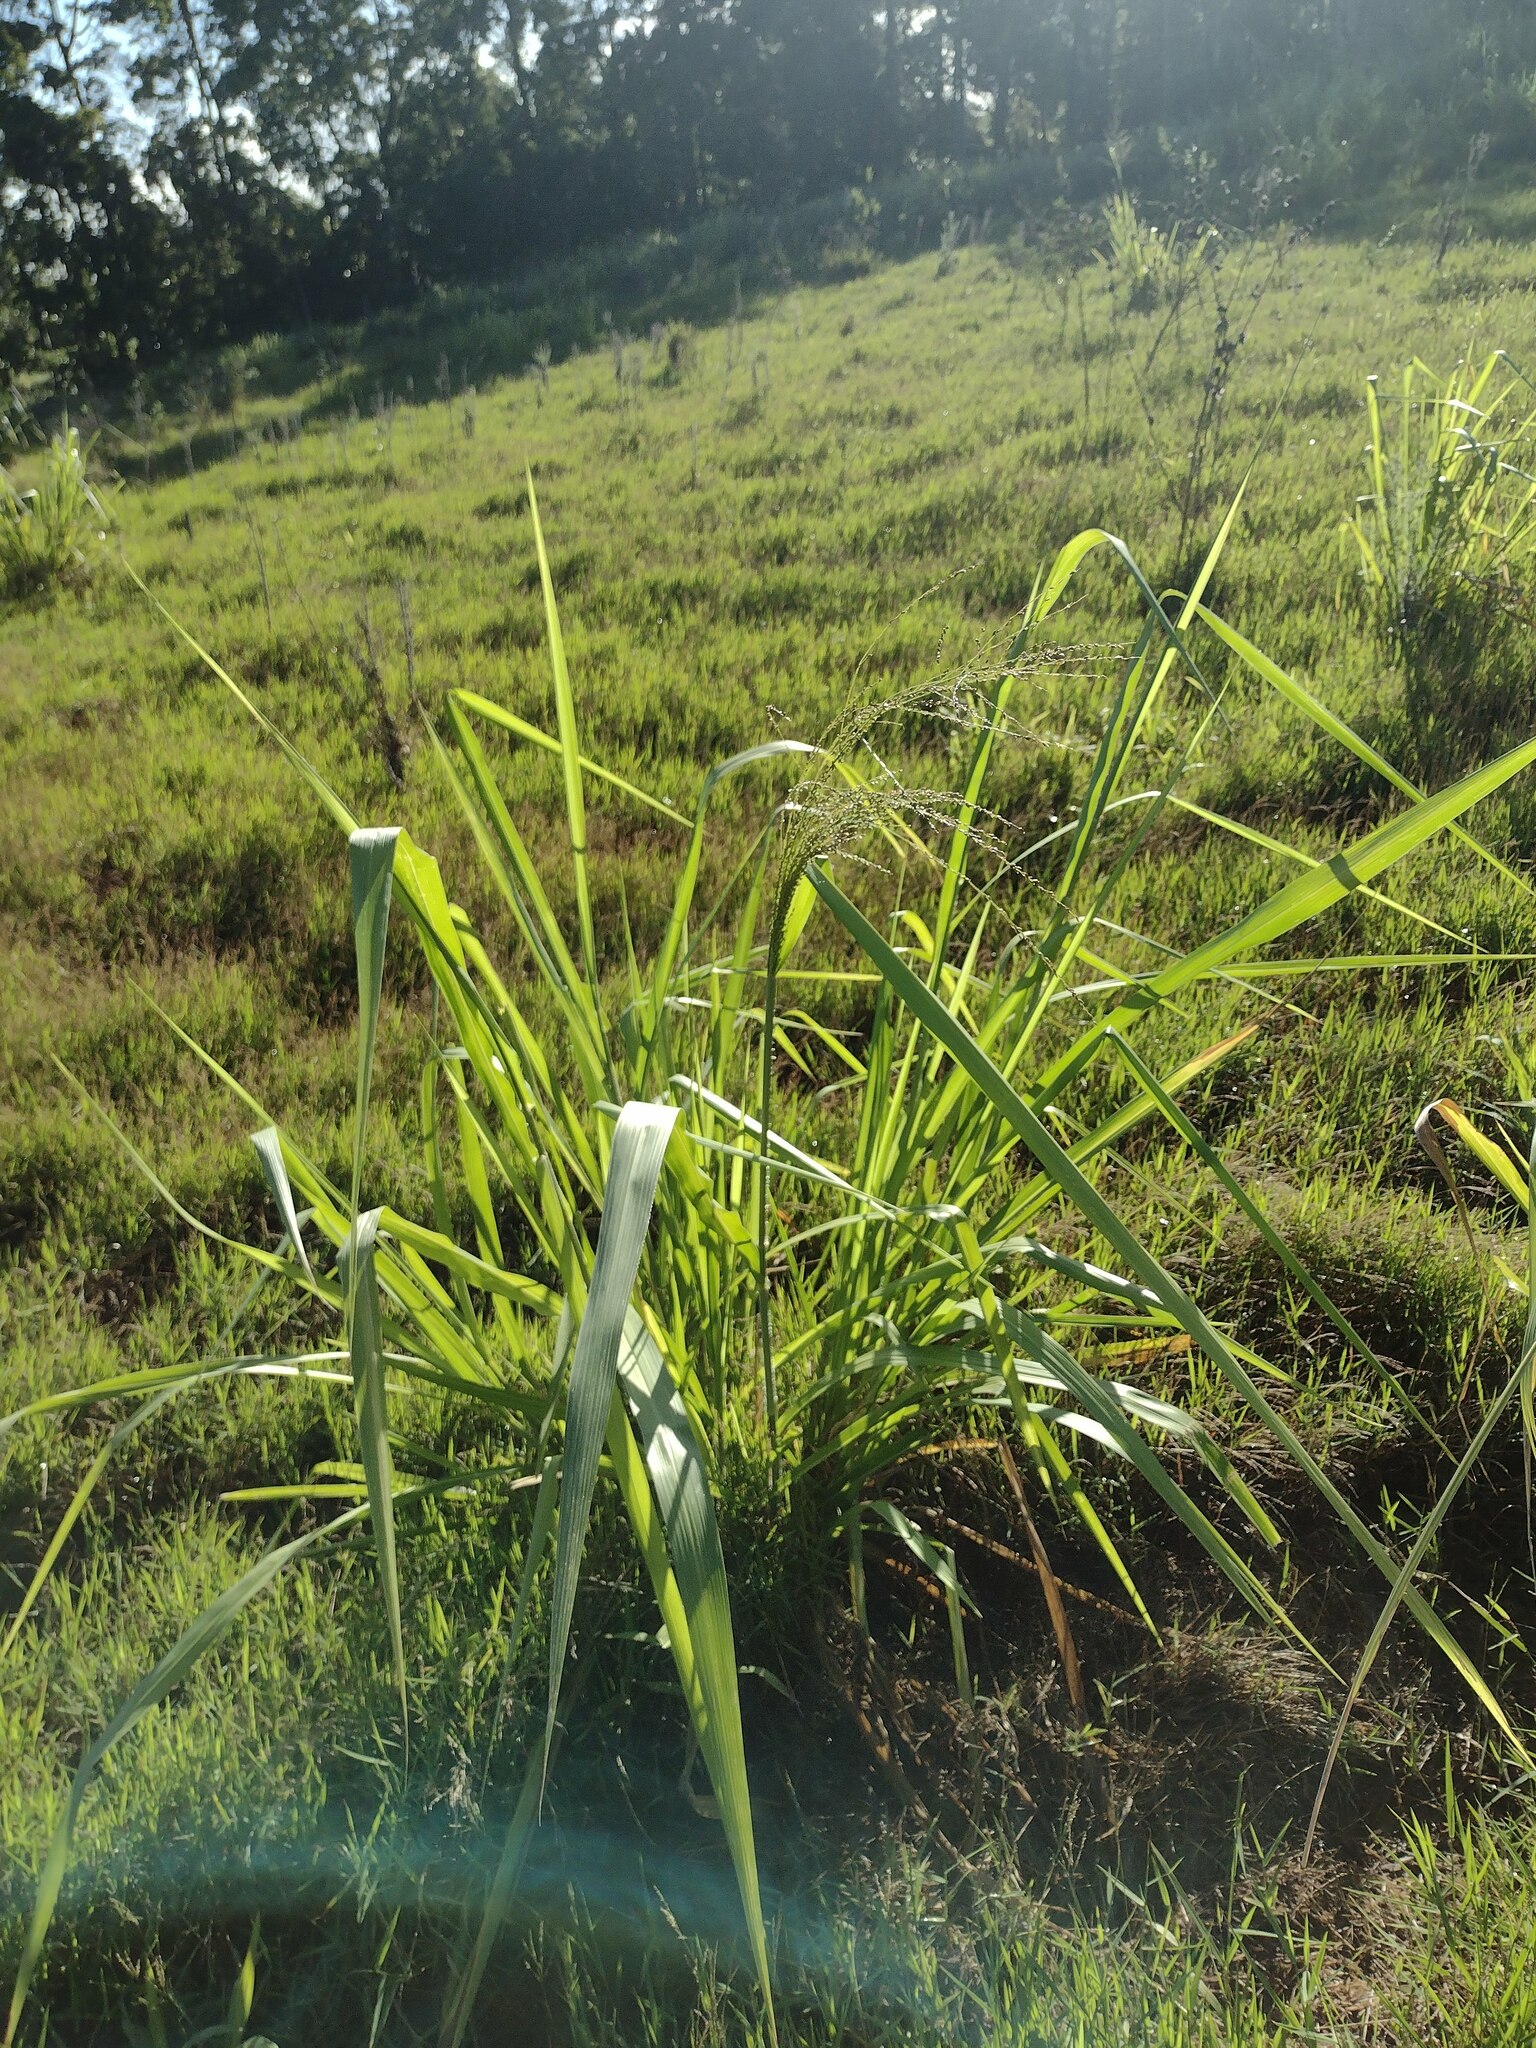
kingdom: Plantae
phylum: Tracheophyta
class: Liliopsida
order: Poales
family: Poaceae
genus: Megathyrsus
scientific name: Megathyrsus maximus
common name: Guineagrass
